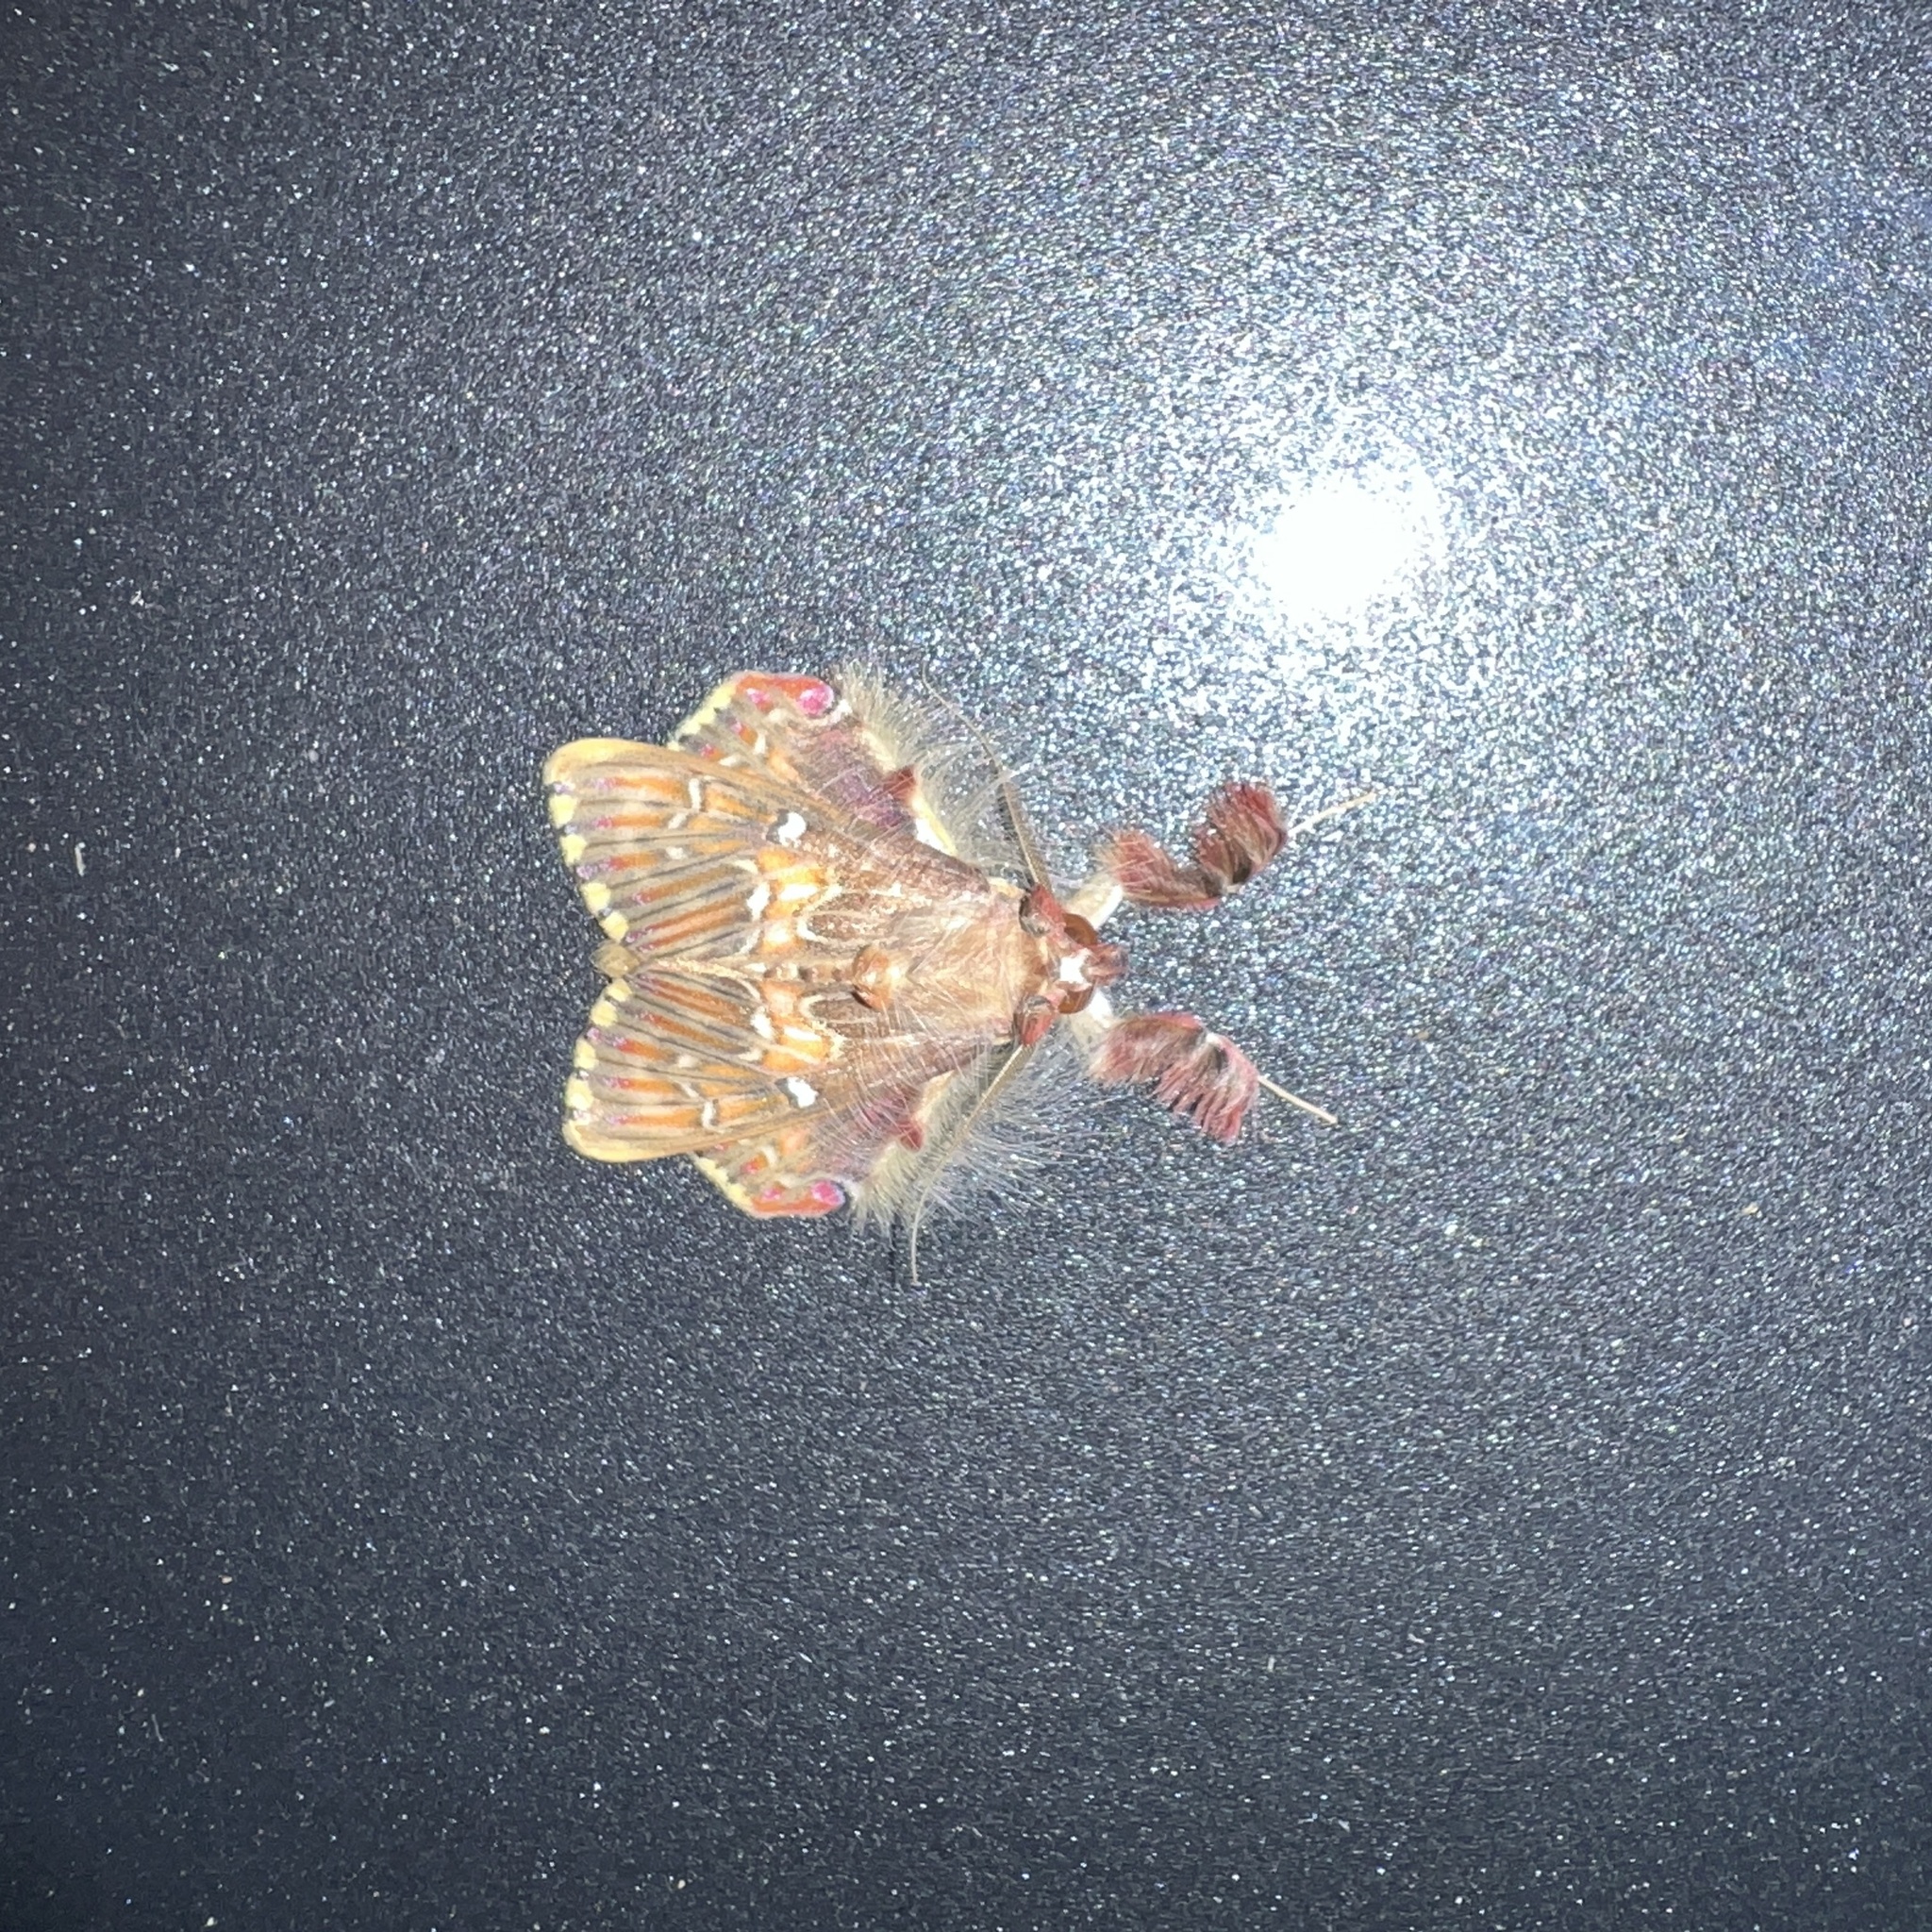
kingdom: Animalia
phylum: Arthropoda
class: Insecta
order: Lepidoptera
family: Erebidae
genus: Sosxetra
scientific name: Sosxetra grata
